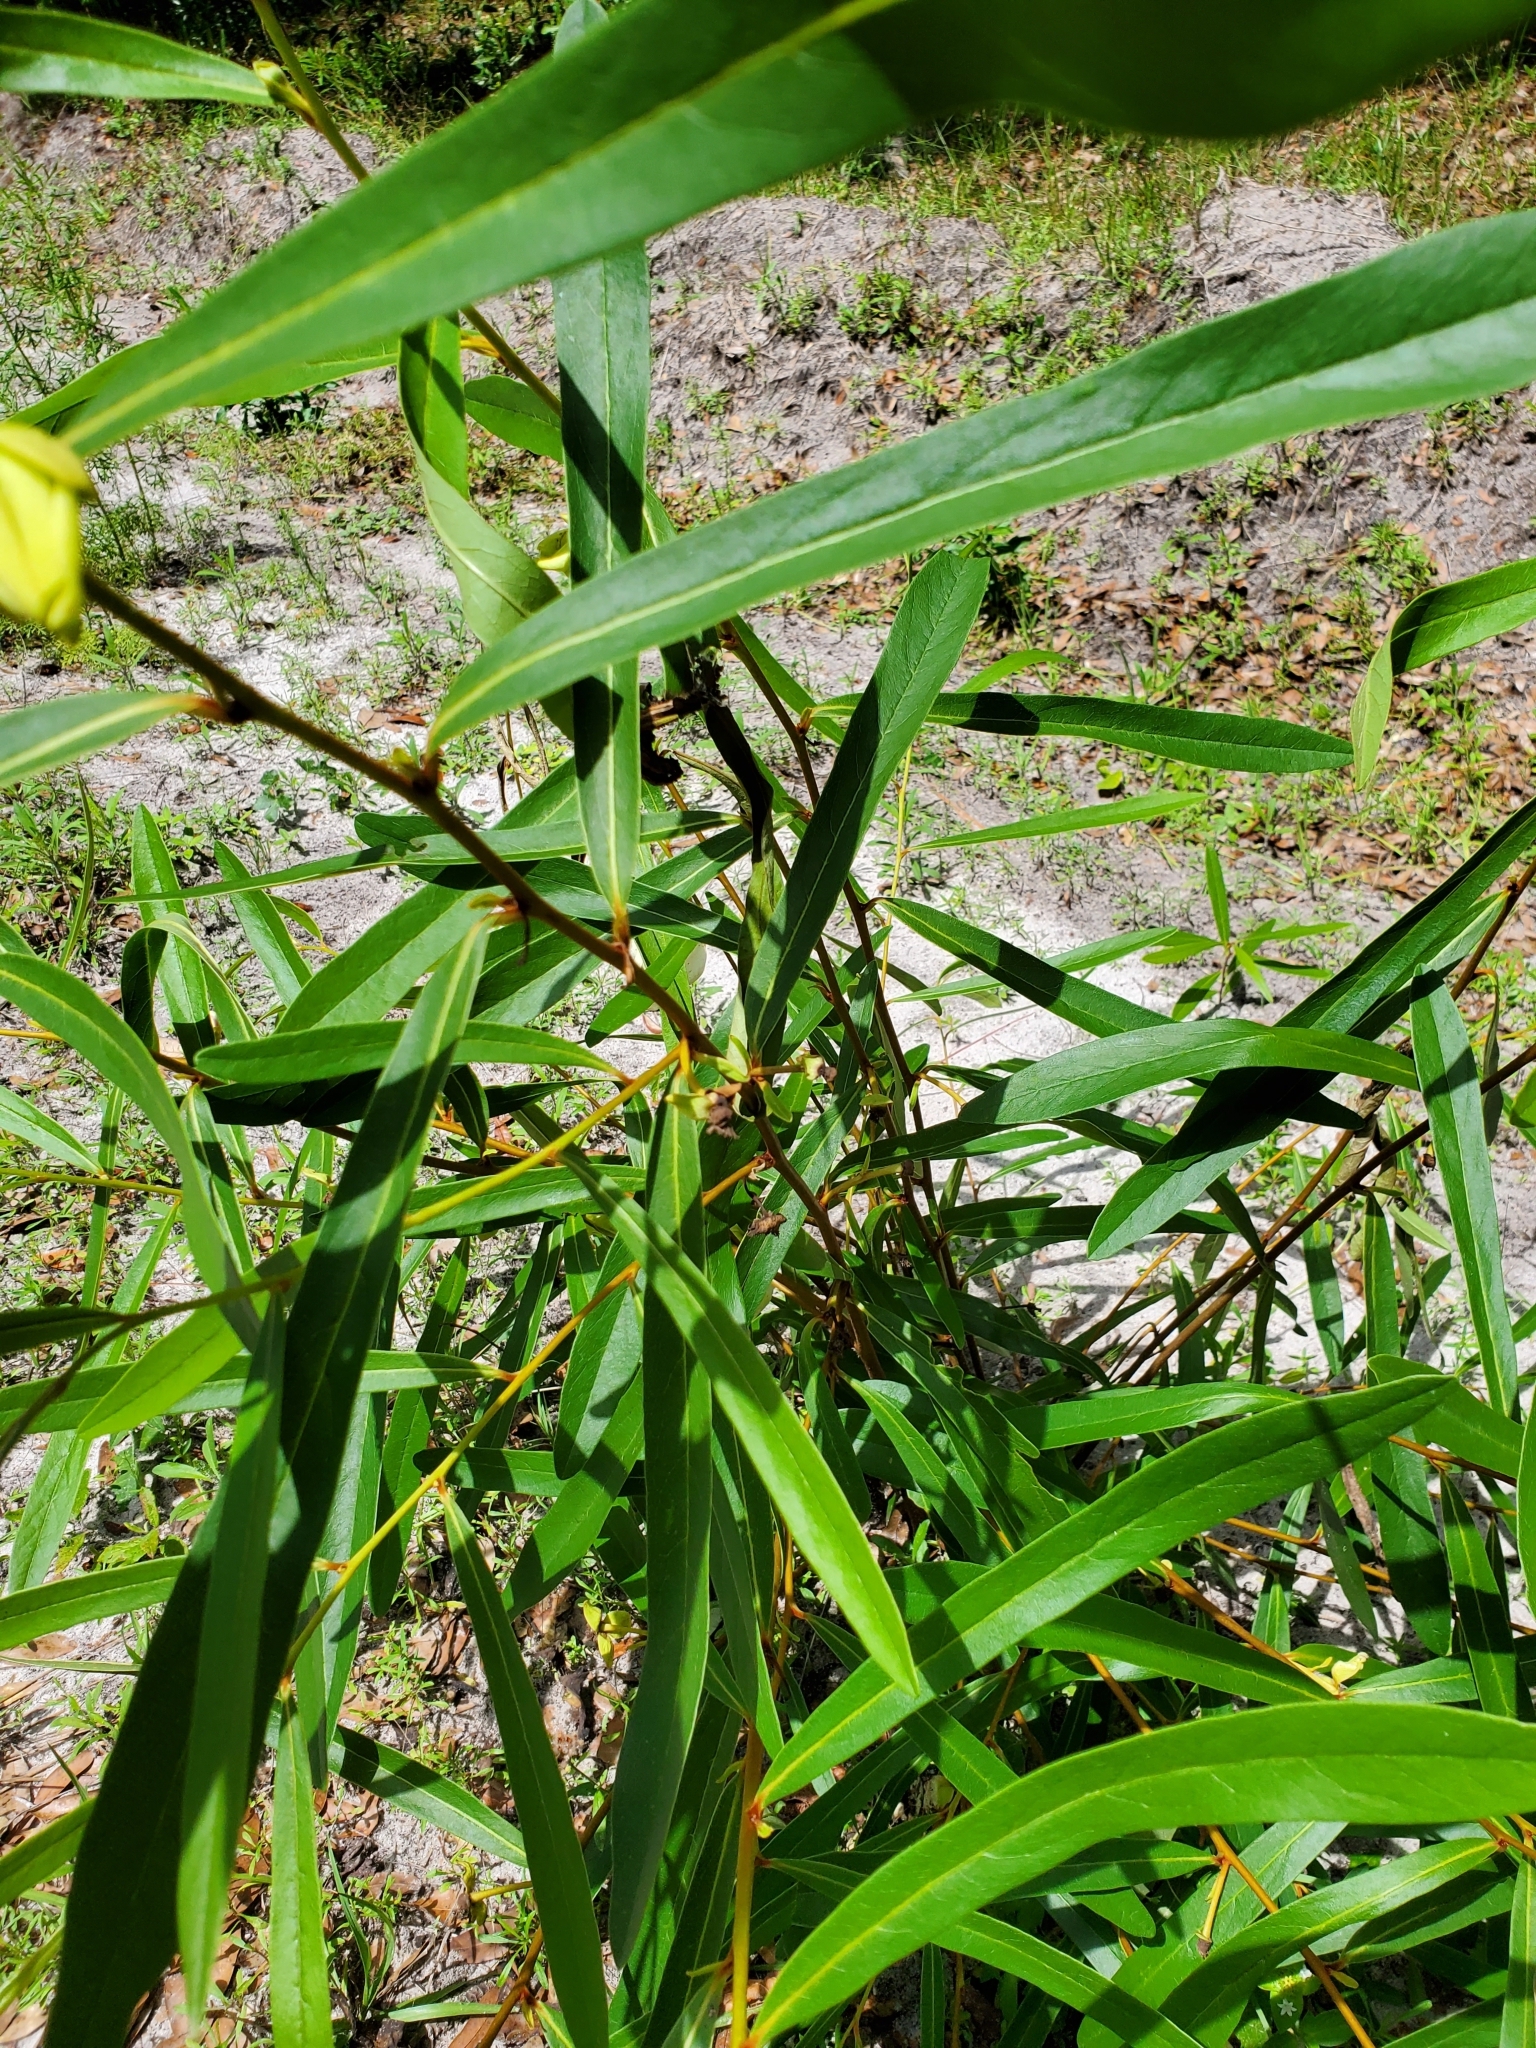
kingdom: Plantae
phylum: Tracheophyta
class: Magnoliopsida
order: Magnoliales
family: Annonaceae
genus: Asimina
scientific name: Asimina longifolia
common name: Polecatbush
